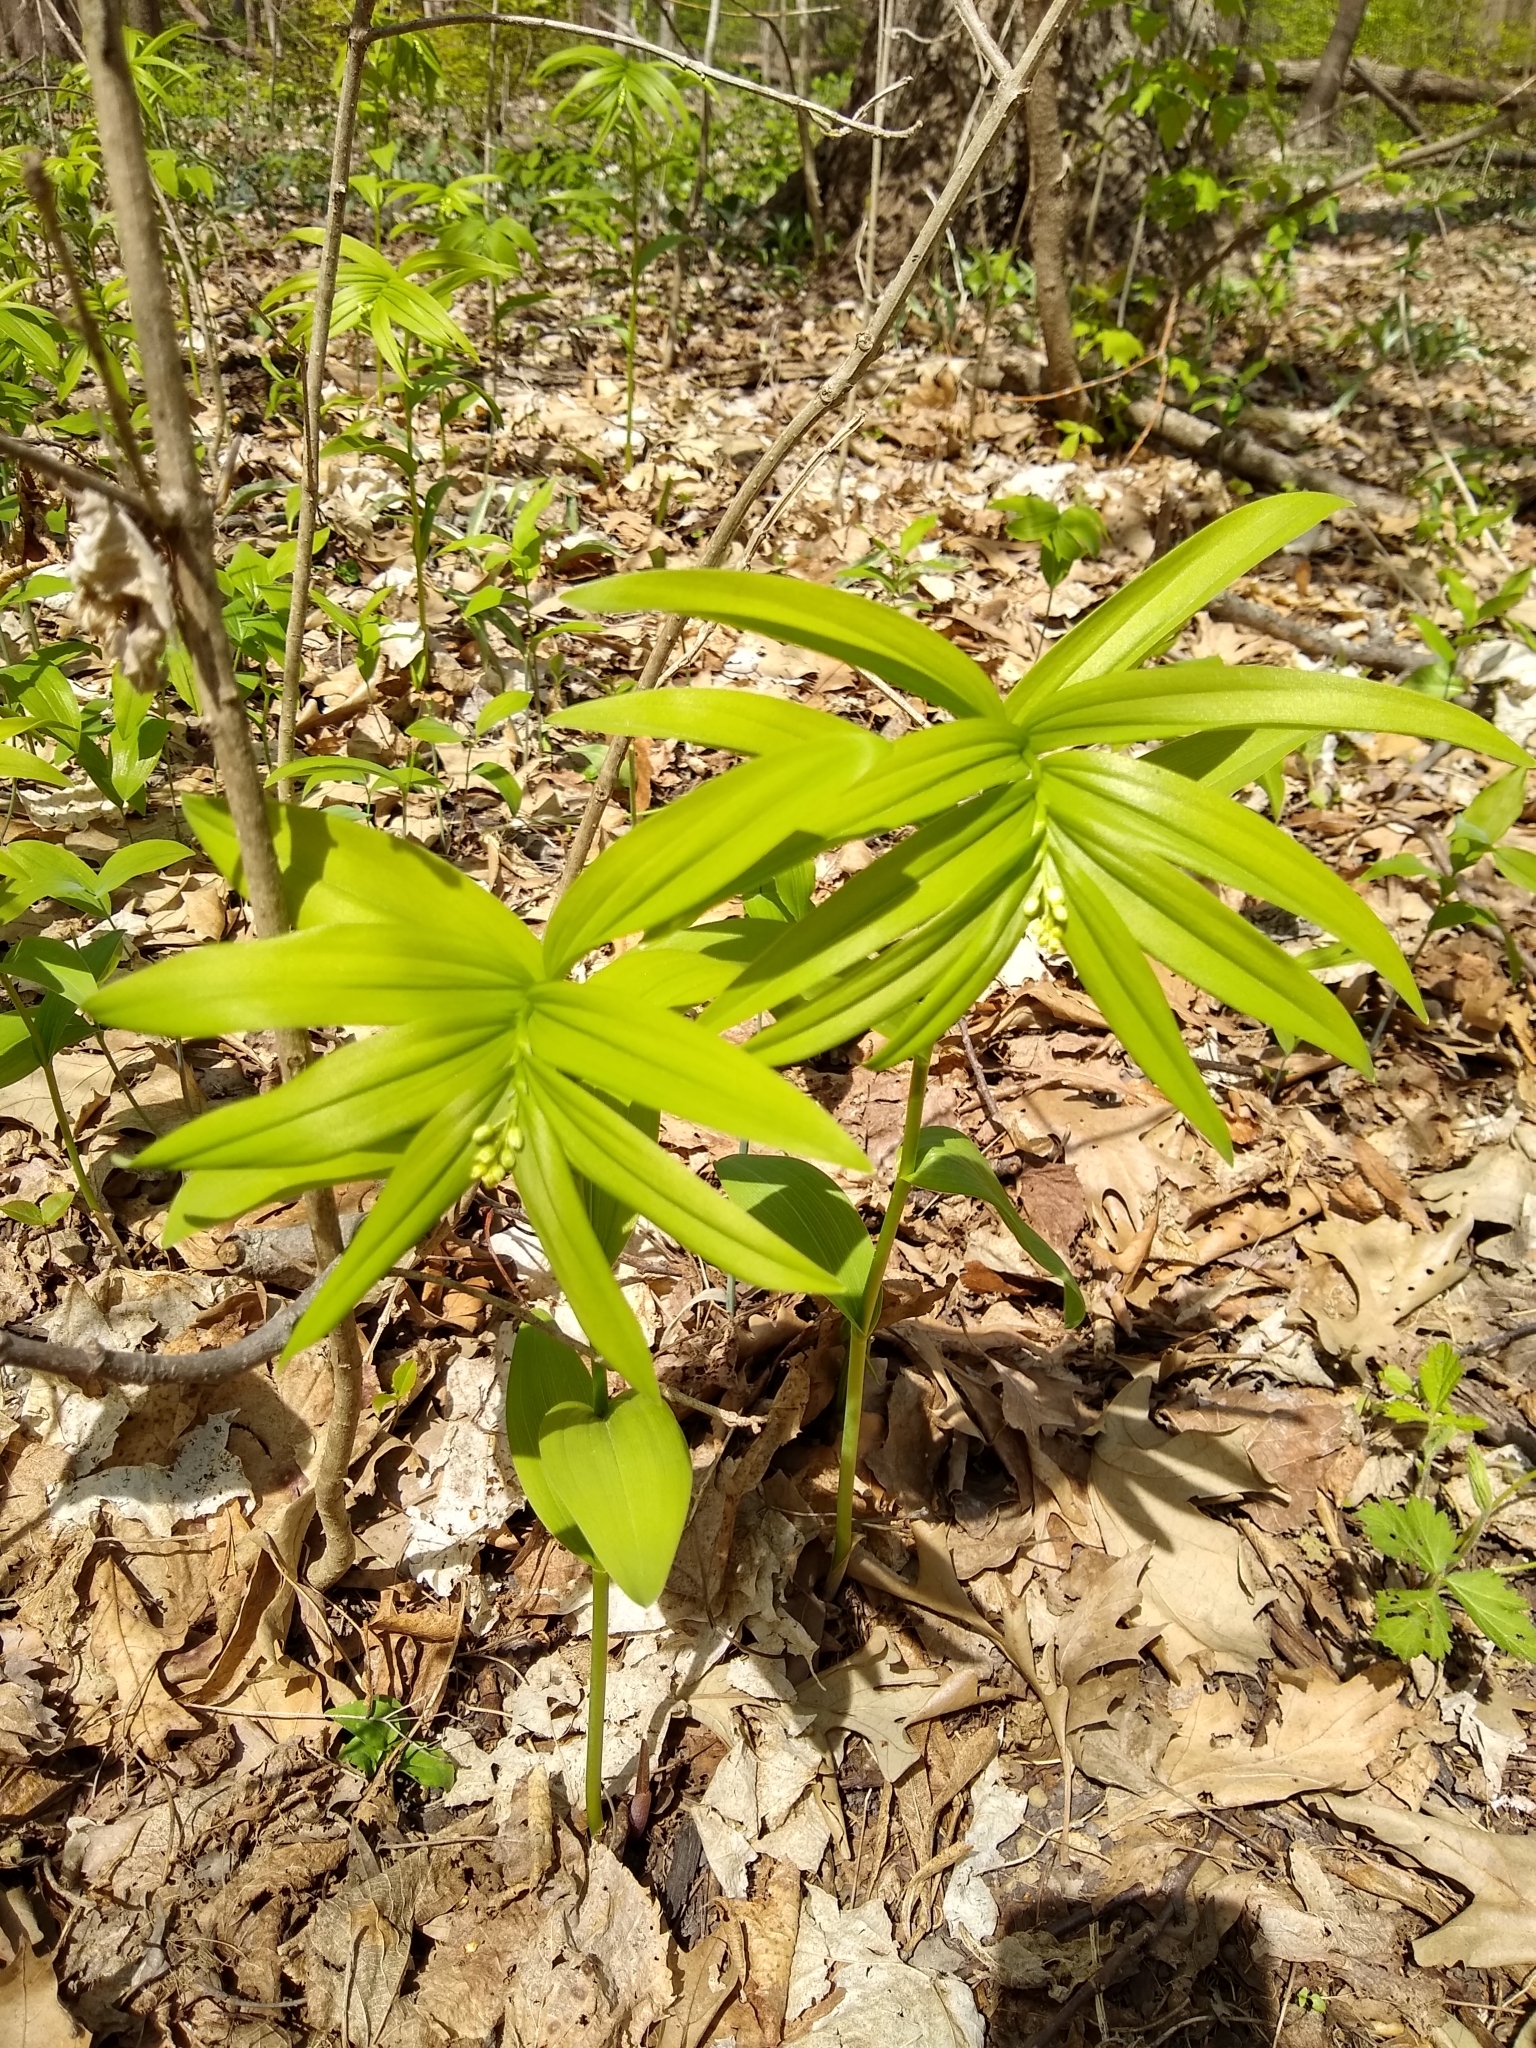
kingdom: Plantae
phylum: Tracheophyta
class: Liliopsida
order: Asparagales
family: Asparagaceae
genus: Maianthemum
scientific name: Maianthemum stellatum
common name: Little false solomon's seal
